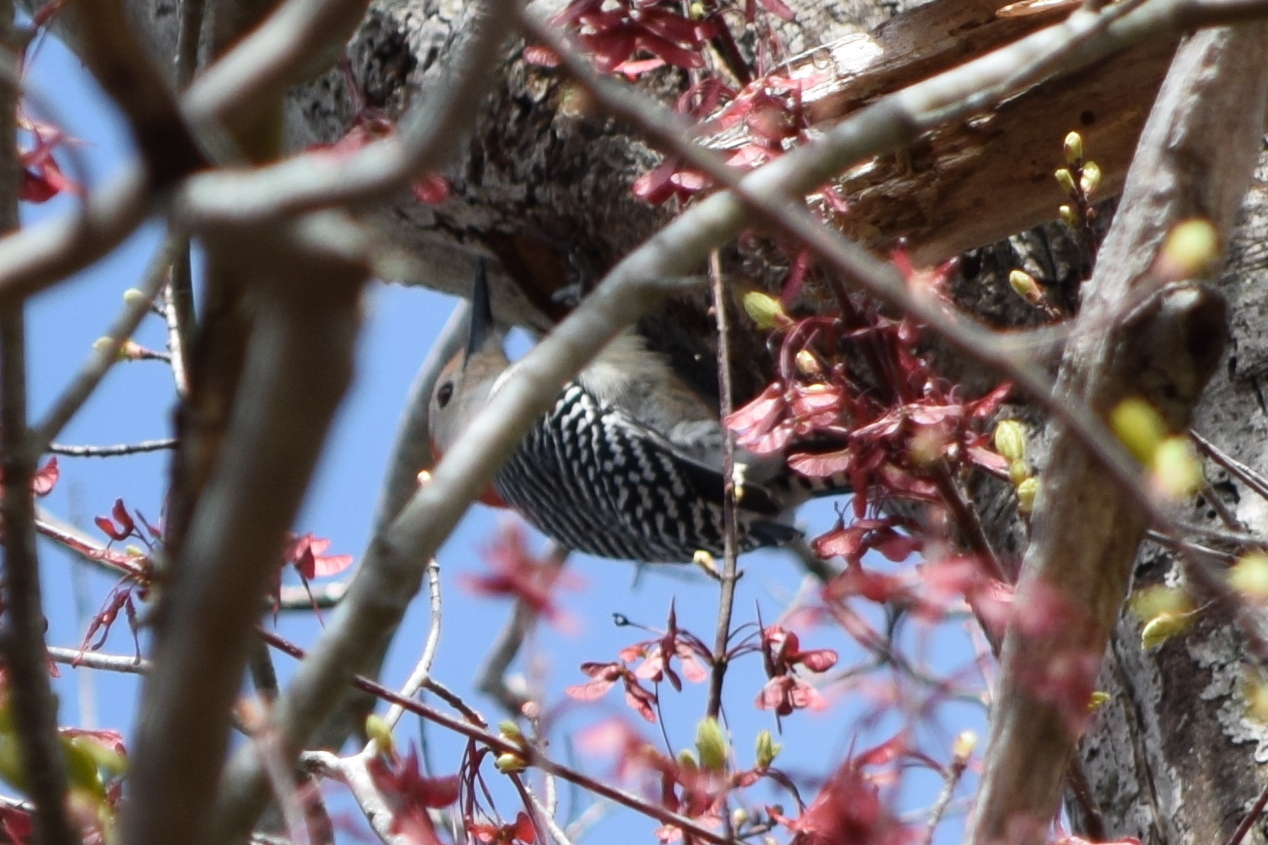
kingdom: Animalia
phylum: Chordata
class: Aves
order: Piciformes
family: Picidae
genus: Melanerpes
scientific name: Melanerpes carolinus
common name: Red-bellied woodpecker
